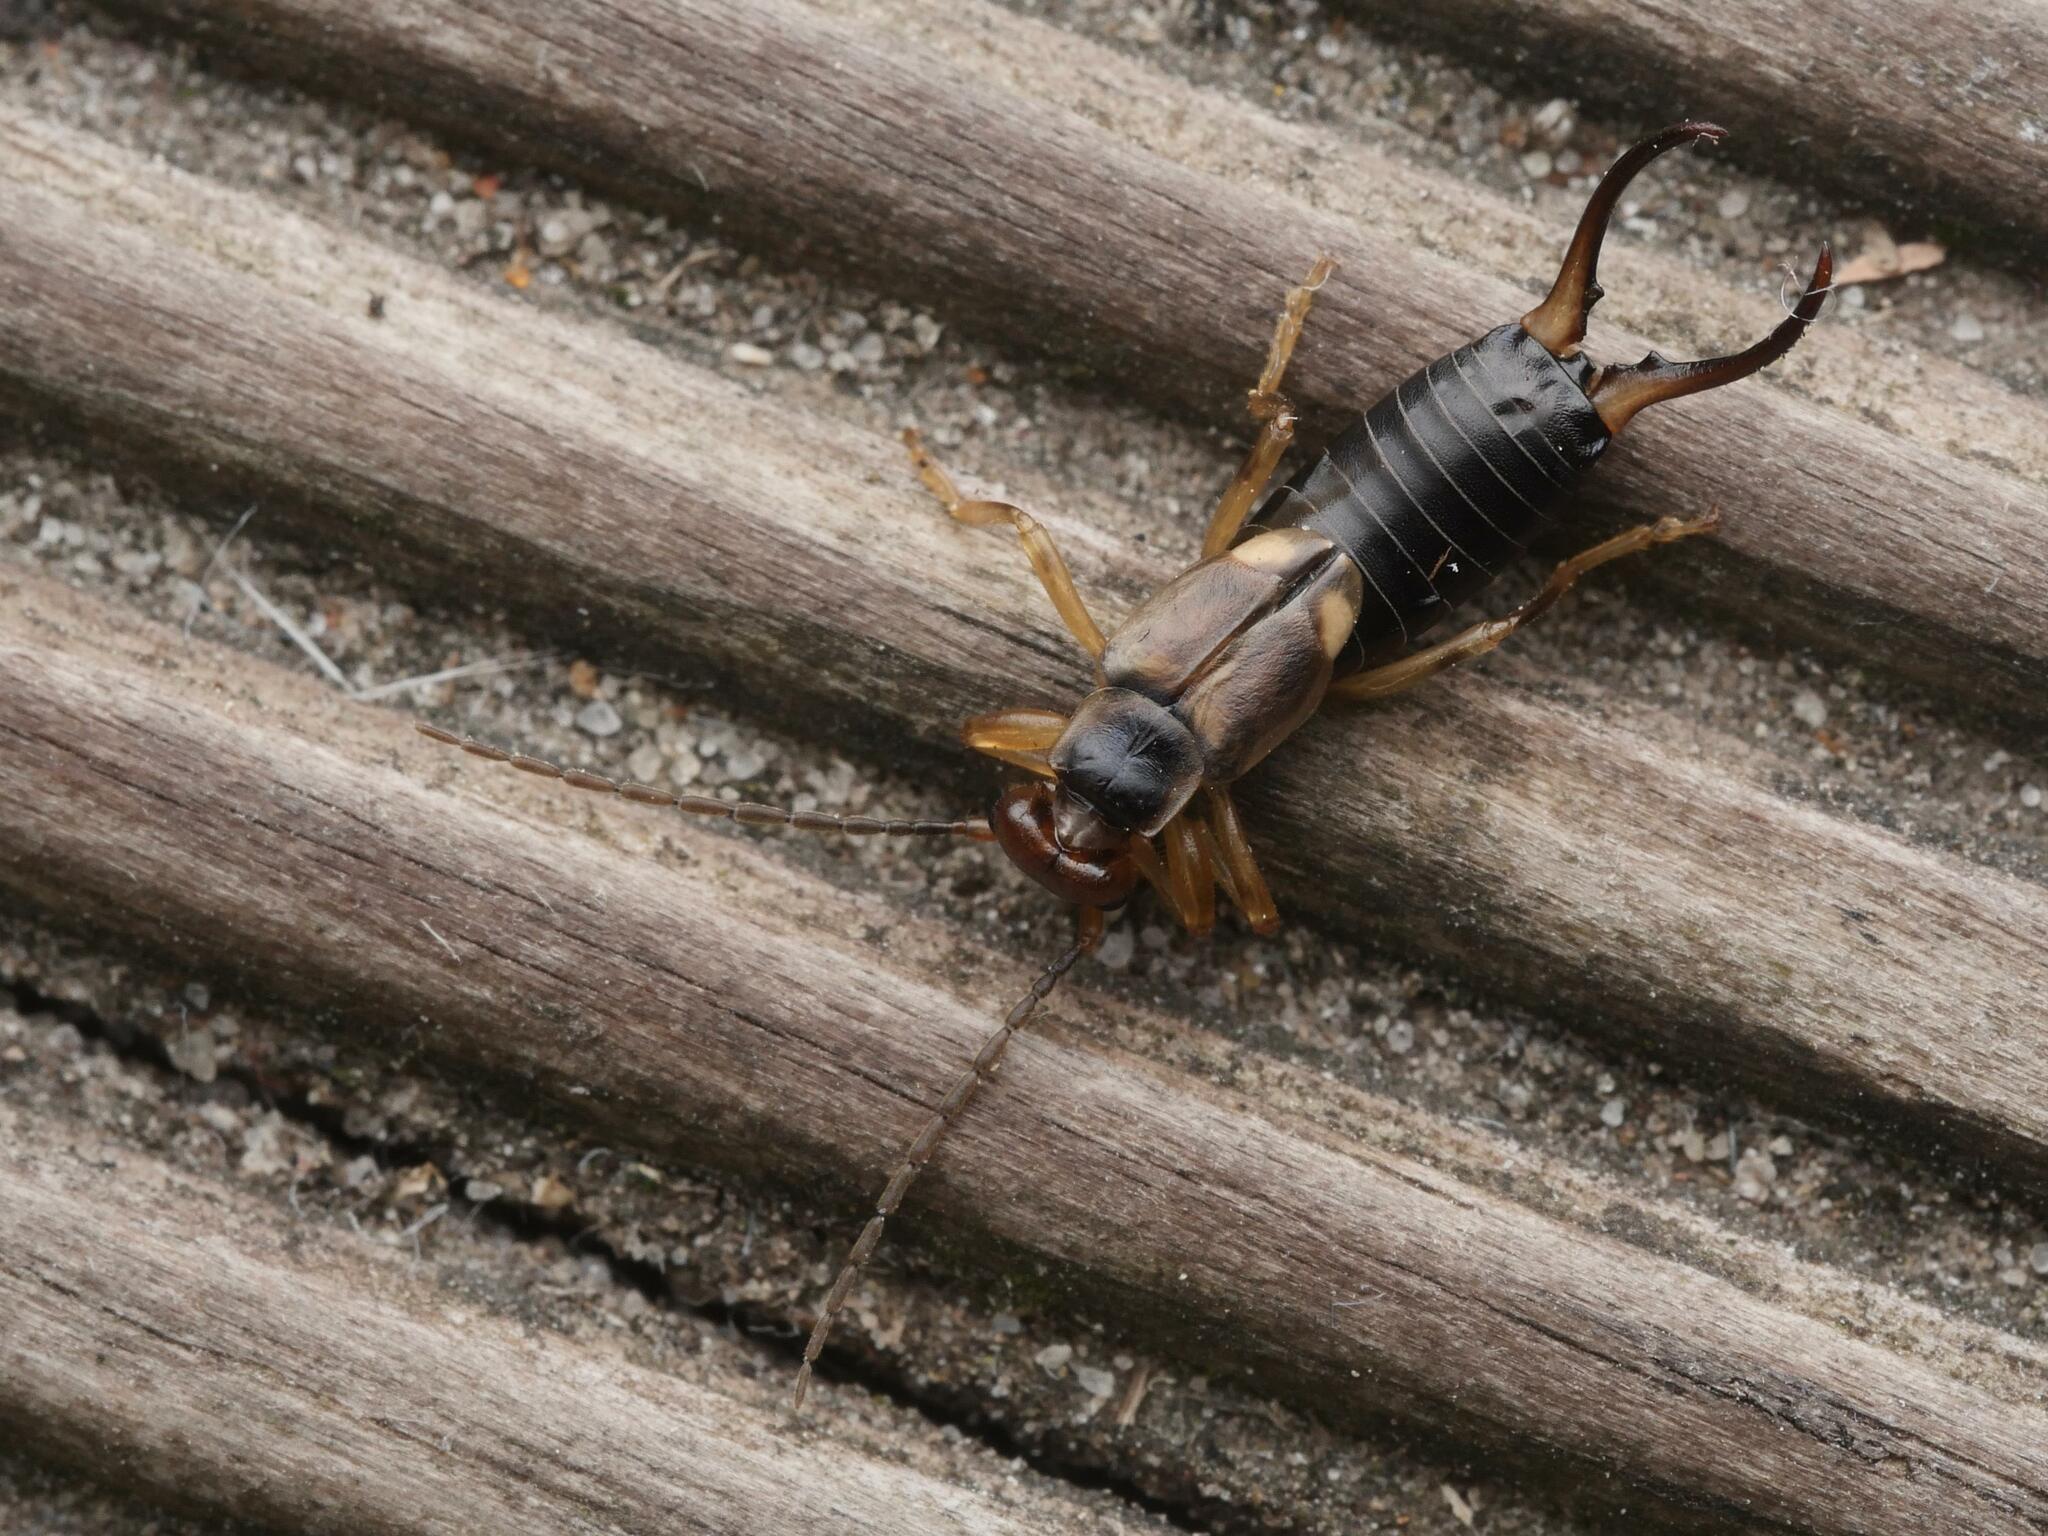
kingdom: Animalia
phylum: Arthropoda
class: Insecta
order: Dermaptera
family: Forficulidae
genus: Forficula
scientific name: Forficula
